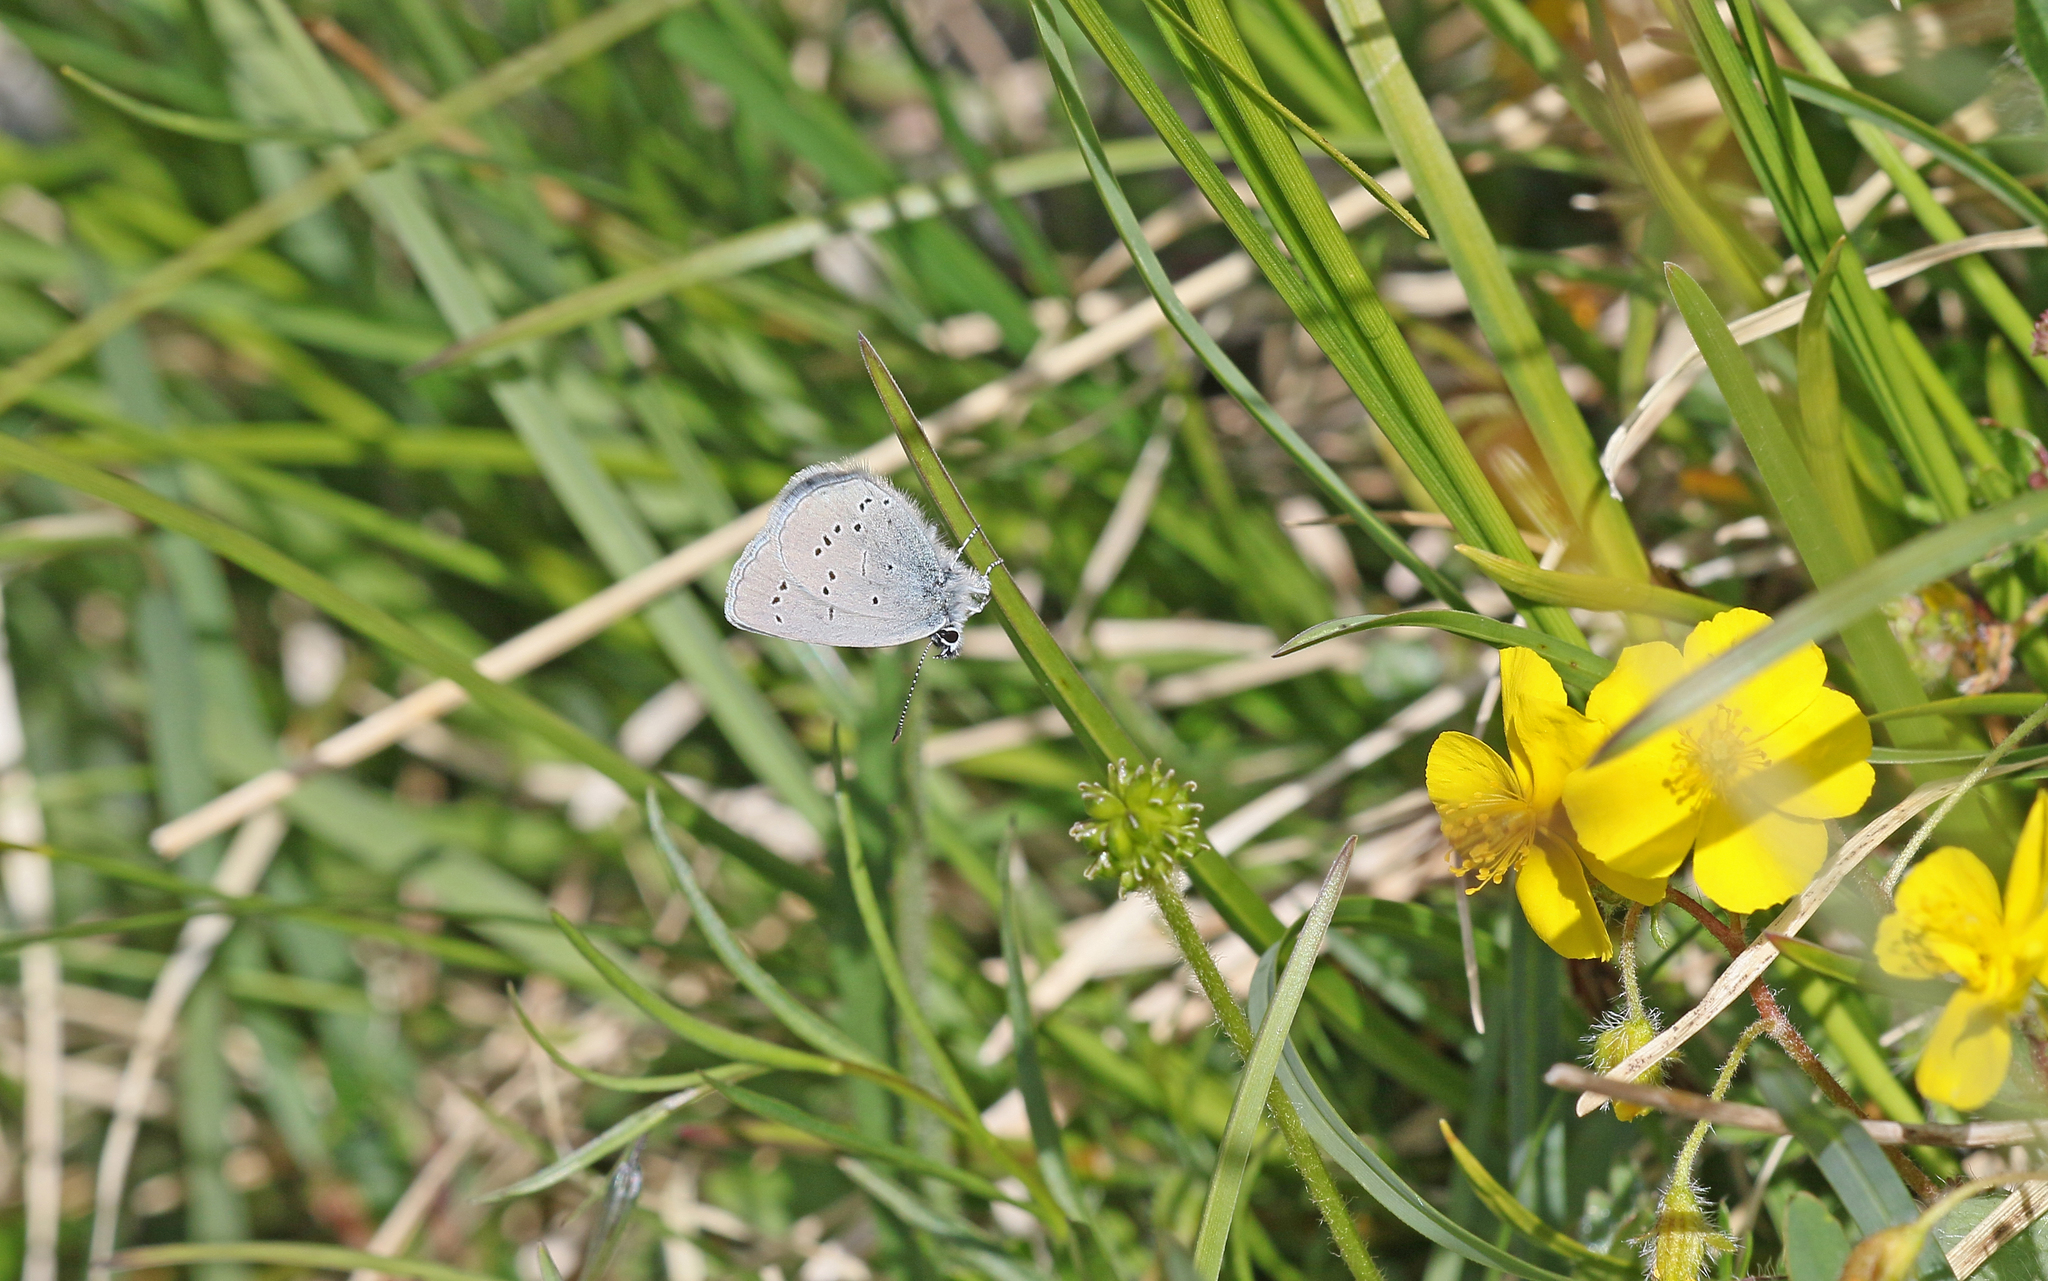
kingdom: Animalia
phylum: Arthropoda
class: Insecta
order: Lepidoptera
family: Lycaenidae
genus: Cupido
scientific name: Cupido minimus
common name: Small blue
